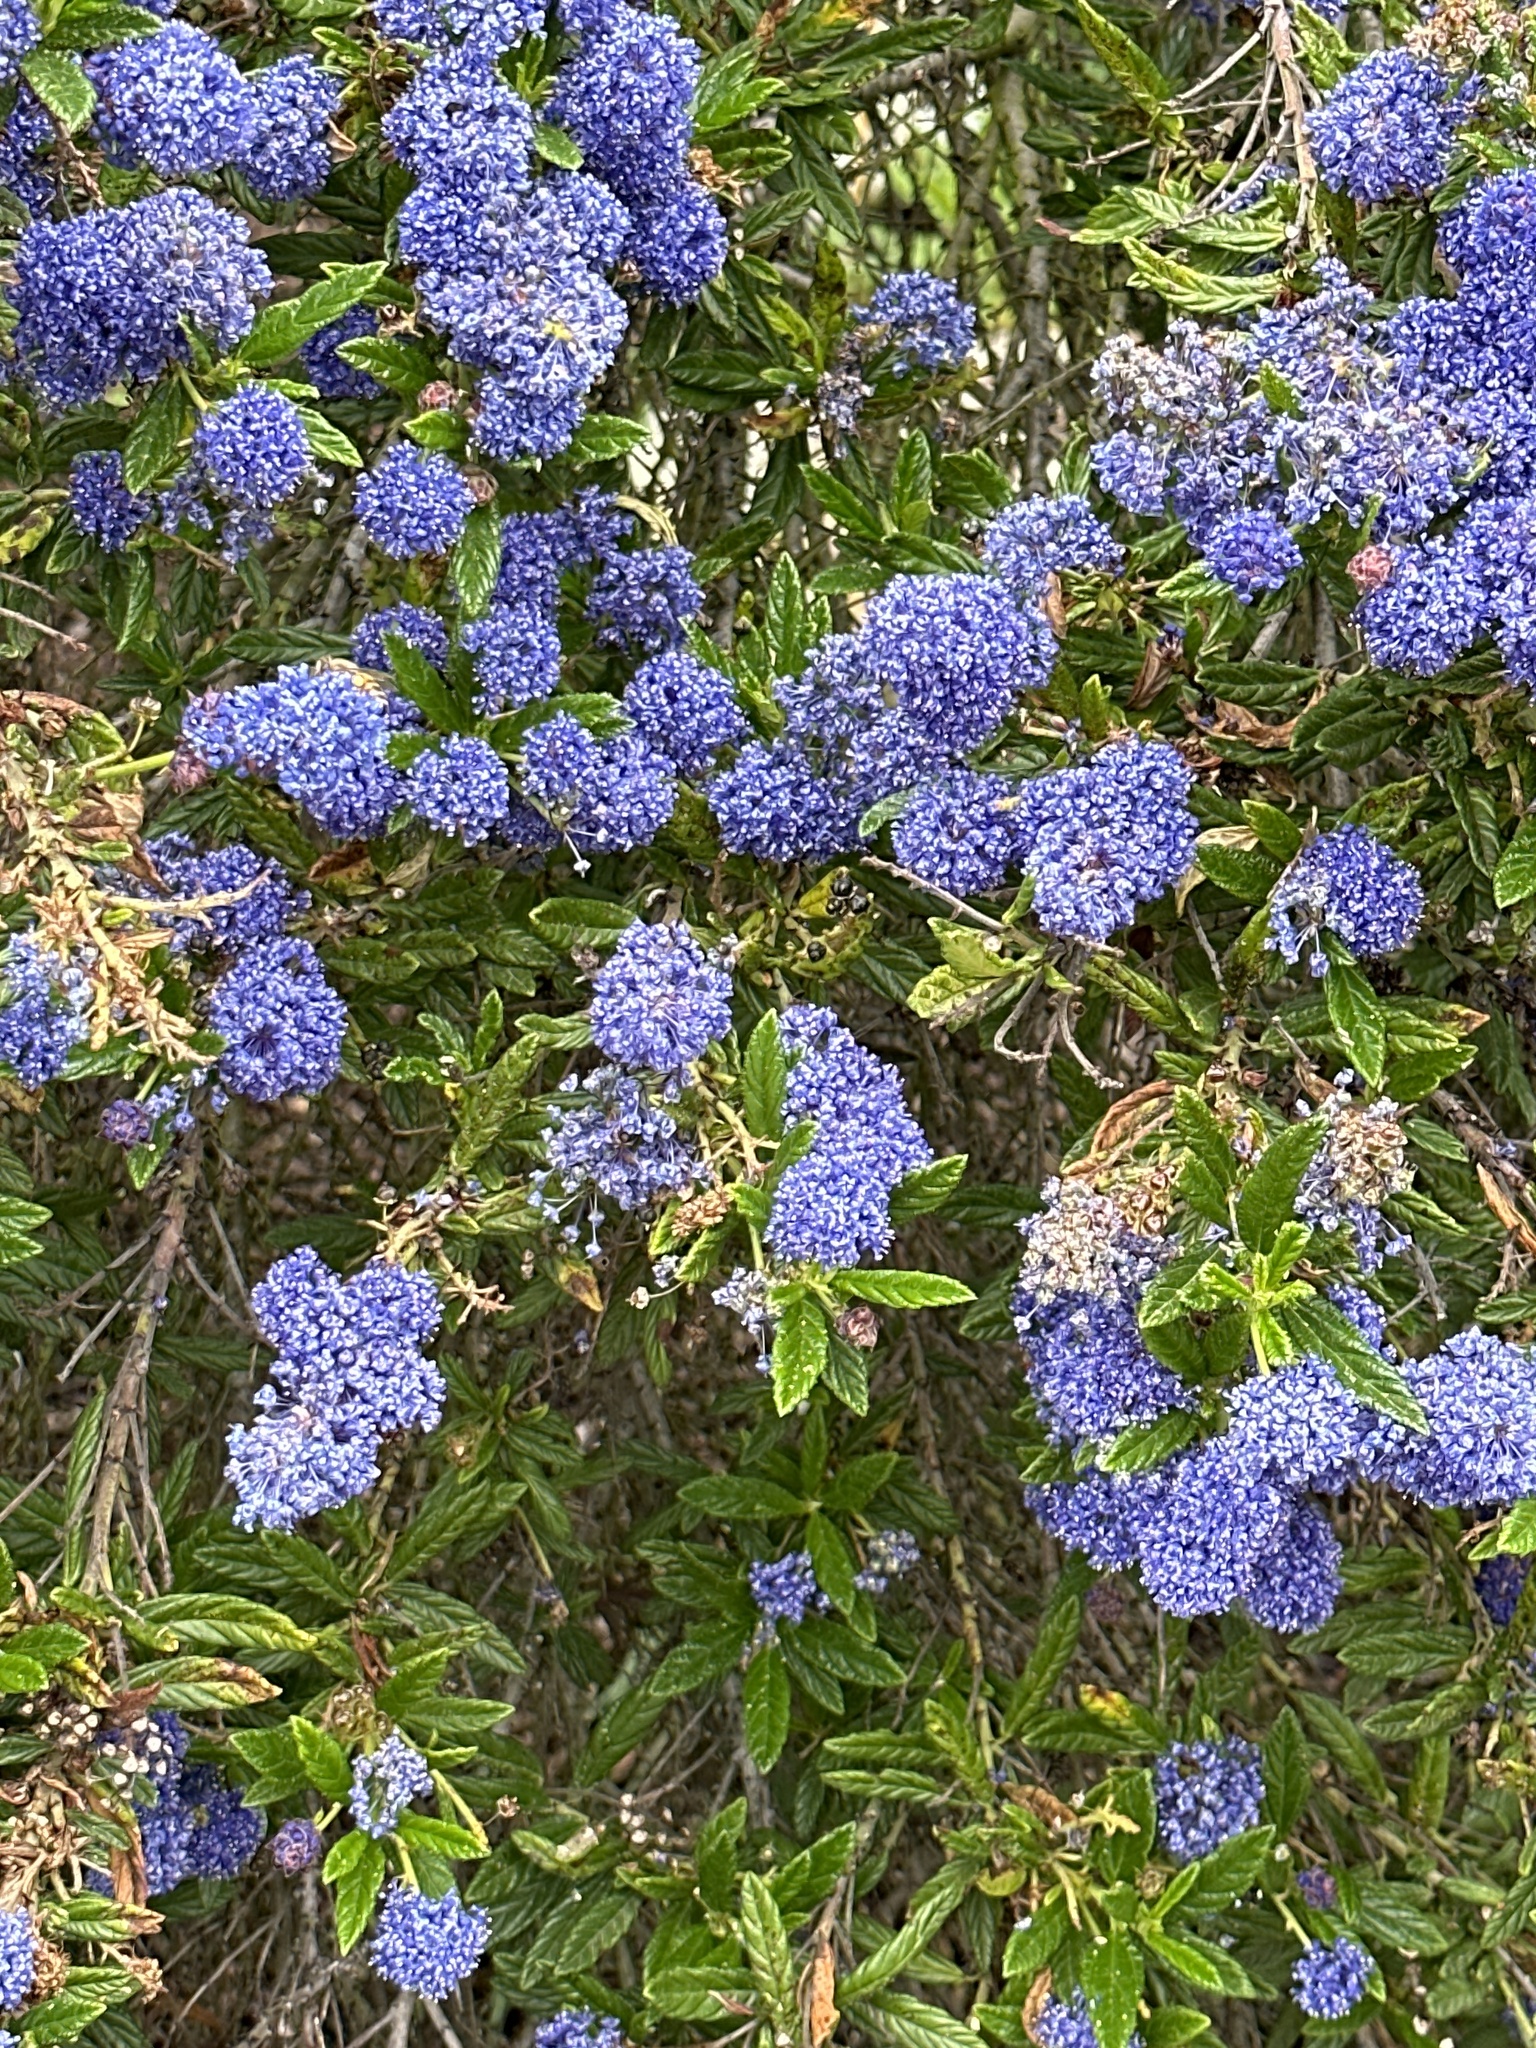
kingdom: Plantae
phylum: Tracheophyta
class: Magnoliopsida
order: Rosales
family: Rhamnaceae
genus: Ceanothus
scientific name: Ceanothus papillosus
